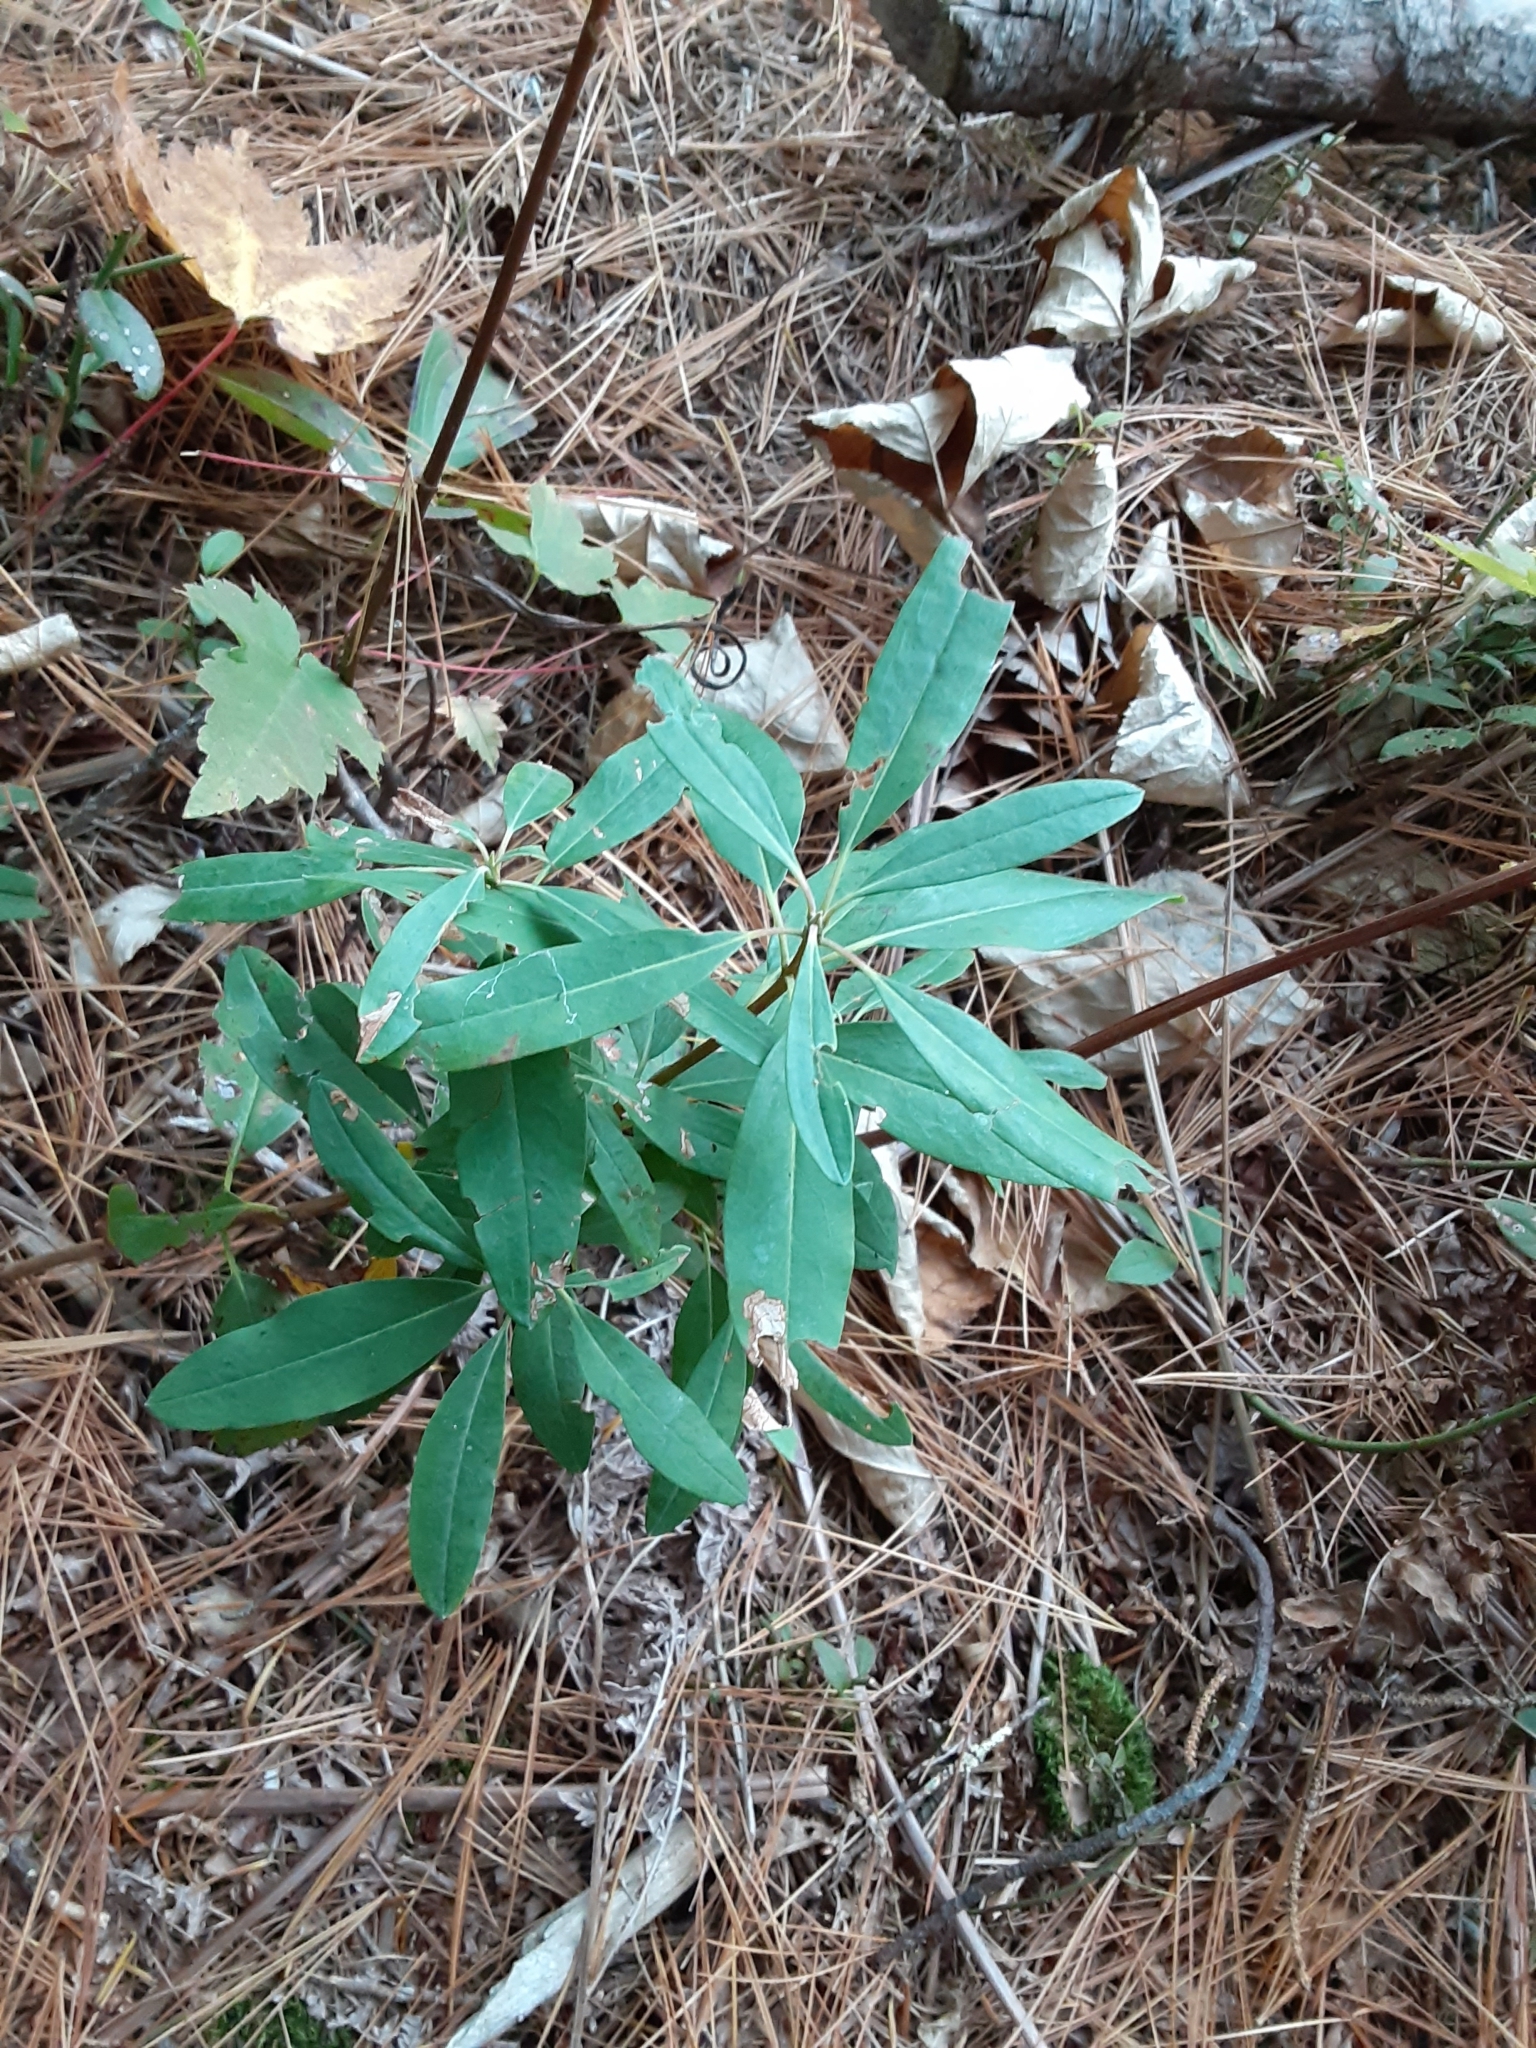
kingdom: Plantae
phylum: Tracheophyta
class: Magnoliopsida
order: Ericales
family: Ericaceae
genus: Kalmia
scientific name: Kalmia angustifolia
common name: Sheep-laurel
